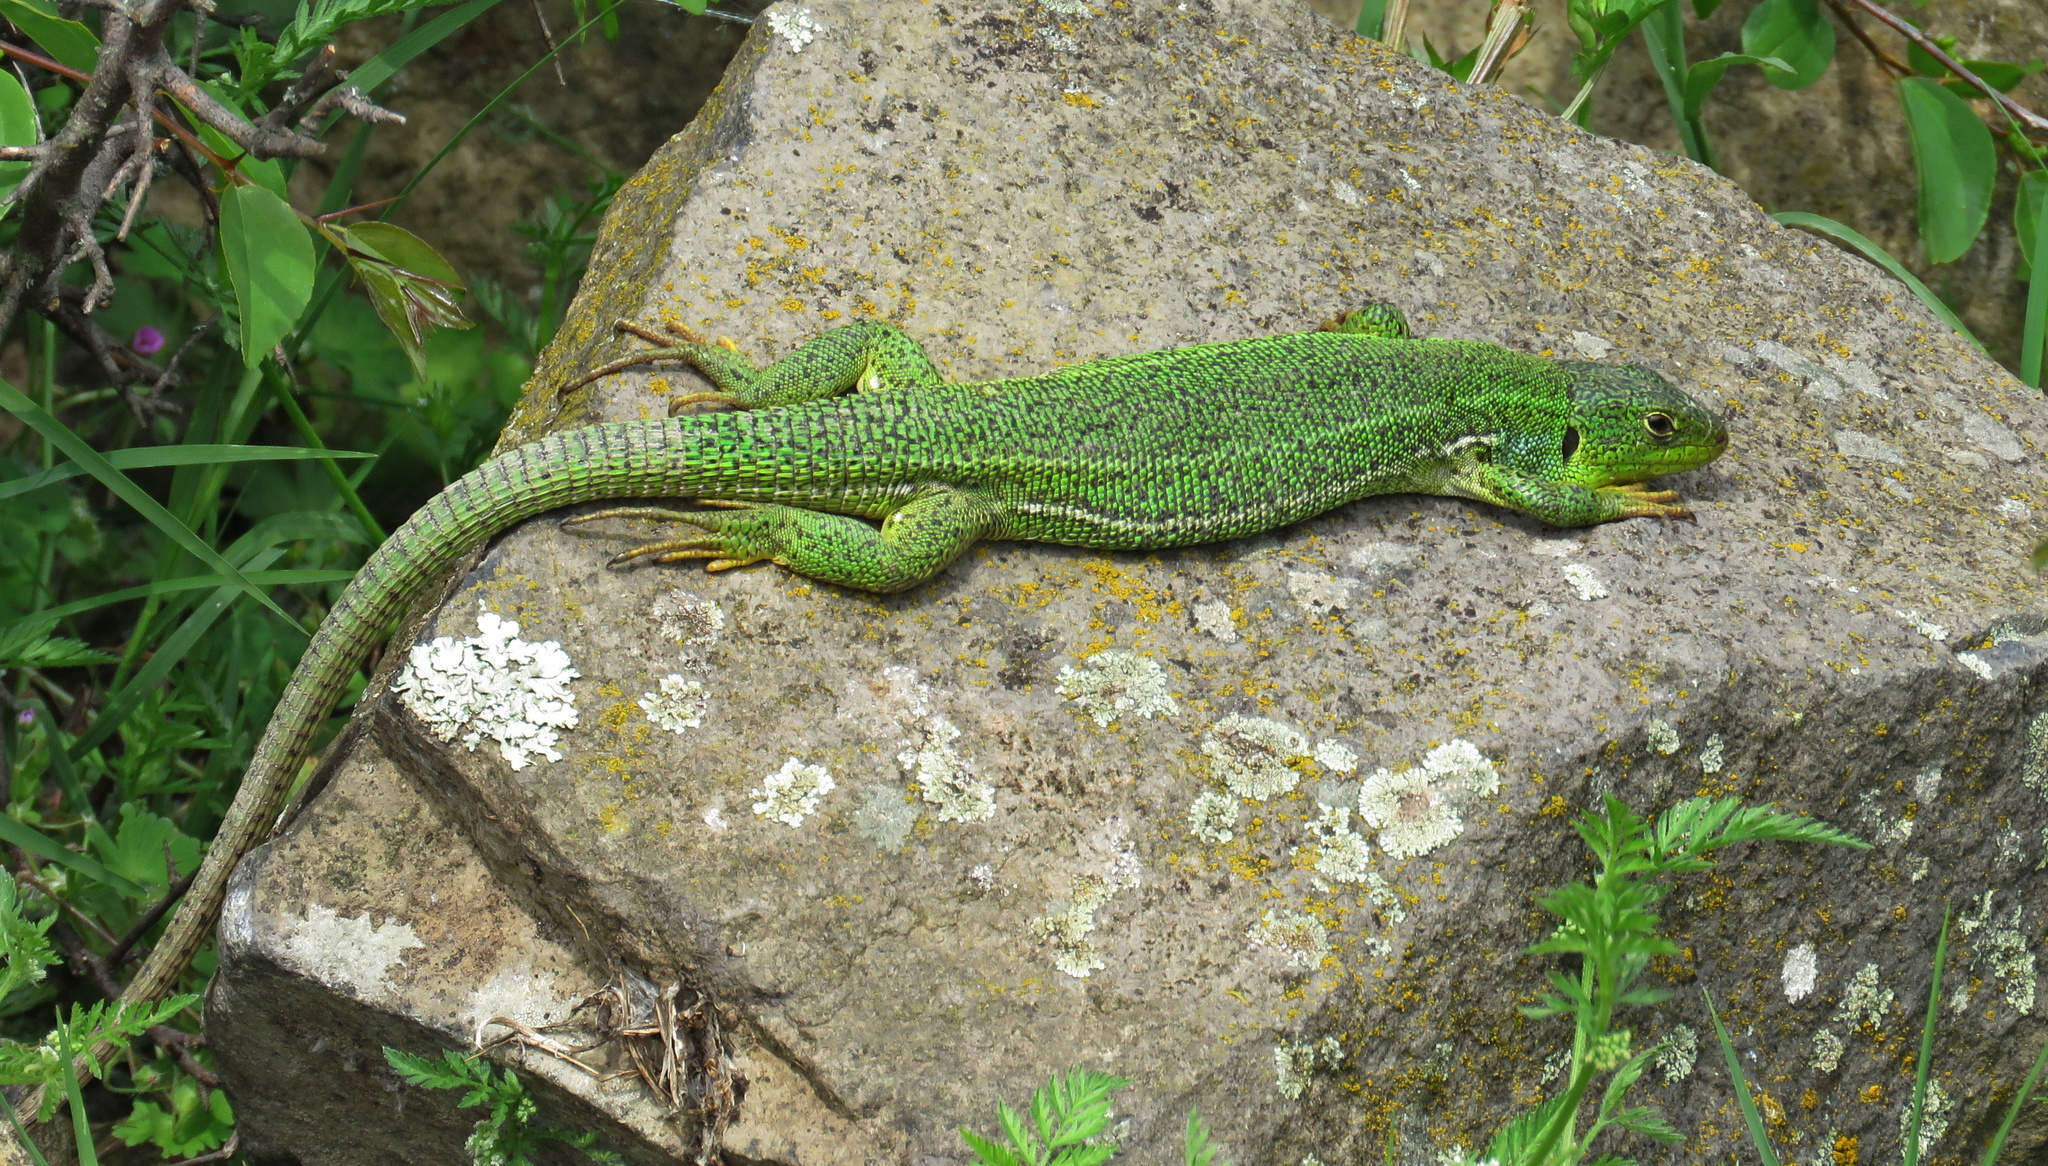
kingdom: Animalia
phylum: Chordata
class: Squamata
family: Lacertidae
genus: Lacerta
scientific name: Lacerta diplochondrodes
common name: Rhodos green lizard
